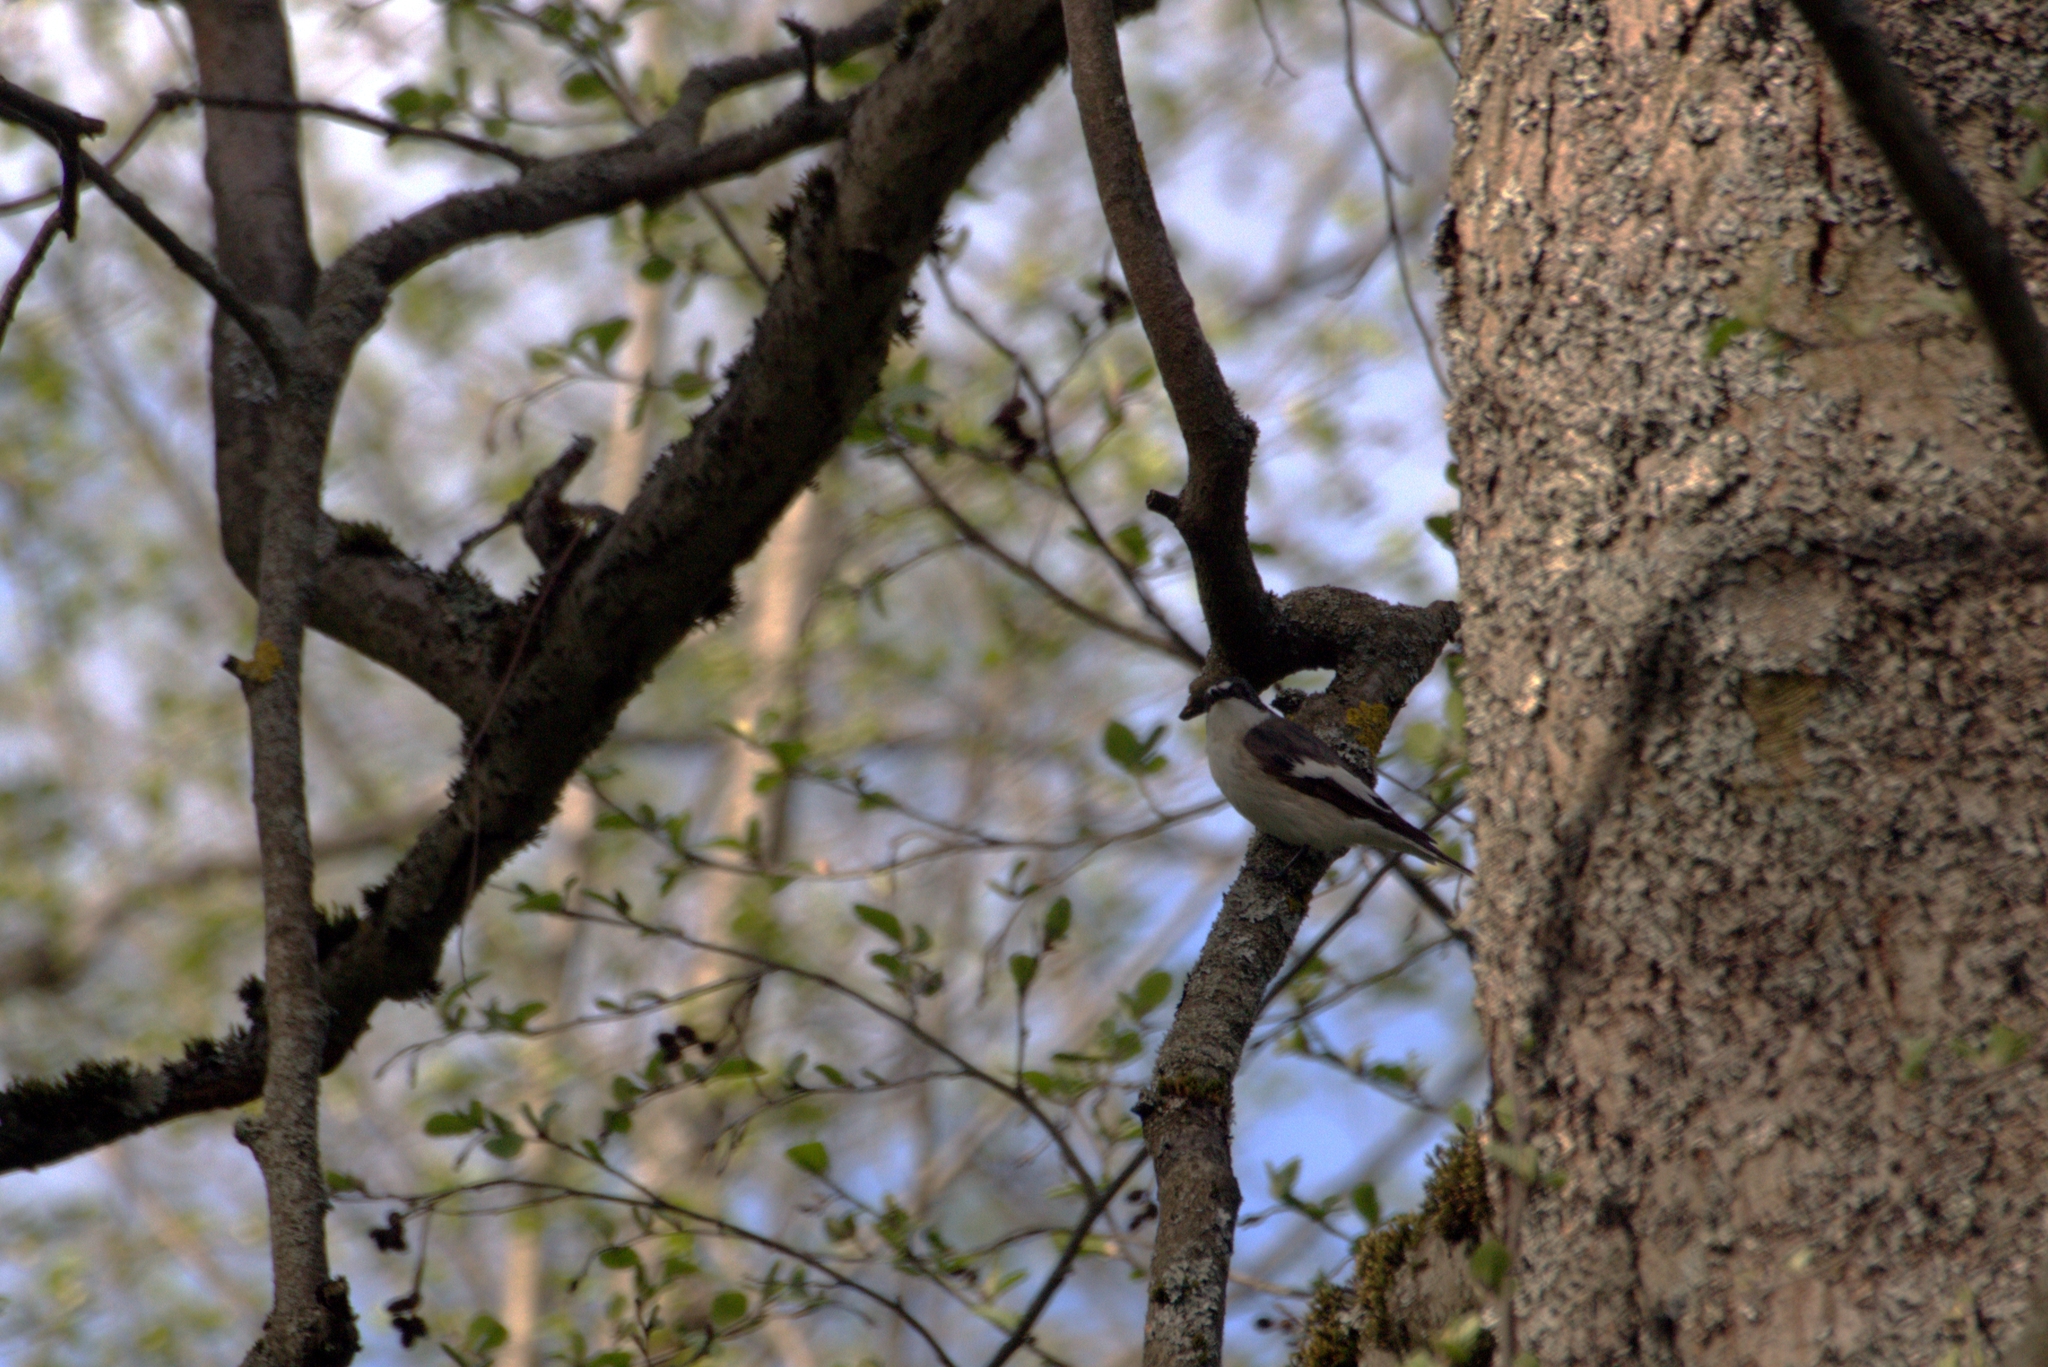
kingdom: Animalia
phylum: Chordata
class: Aves
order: Passeriformes
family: Muscicapidae
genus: Ficedula
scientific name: Ficedula hypoleuca
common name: European pied flycatcher
